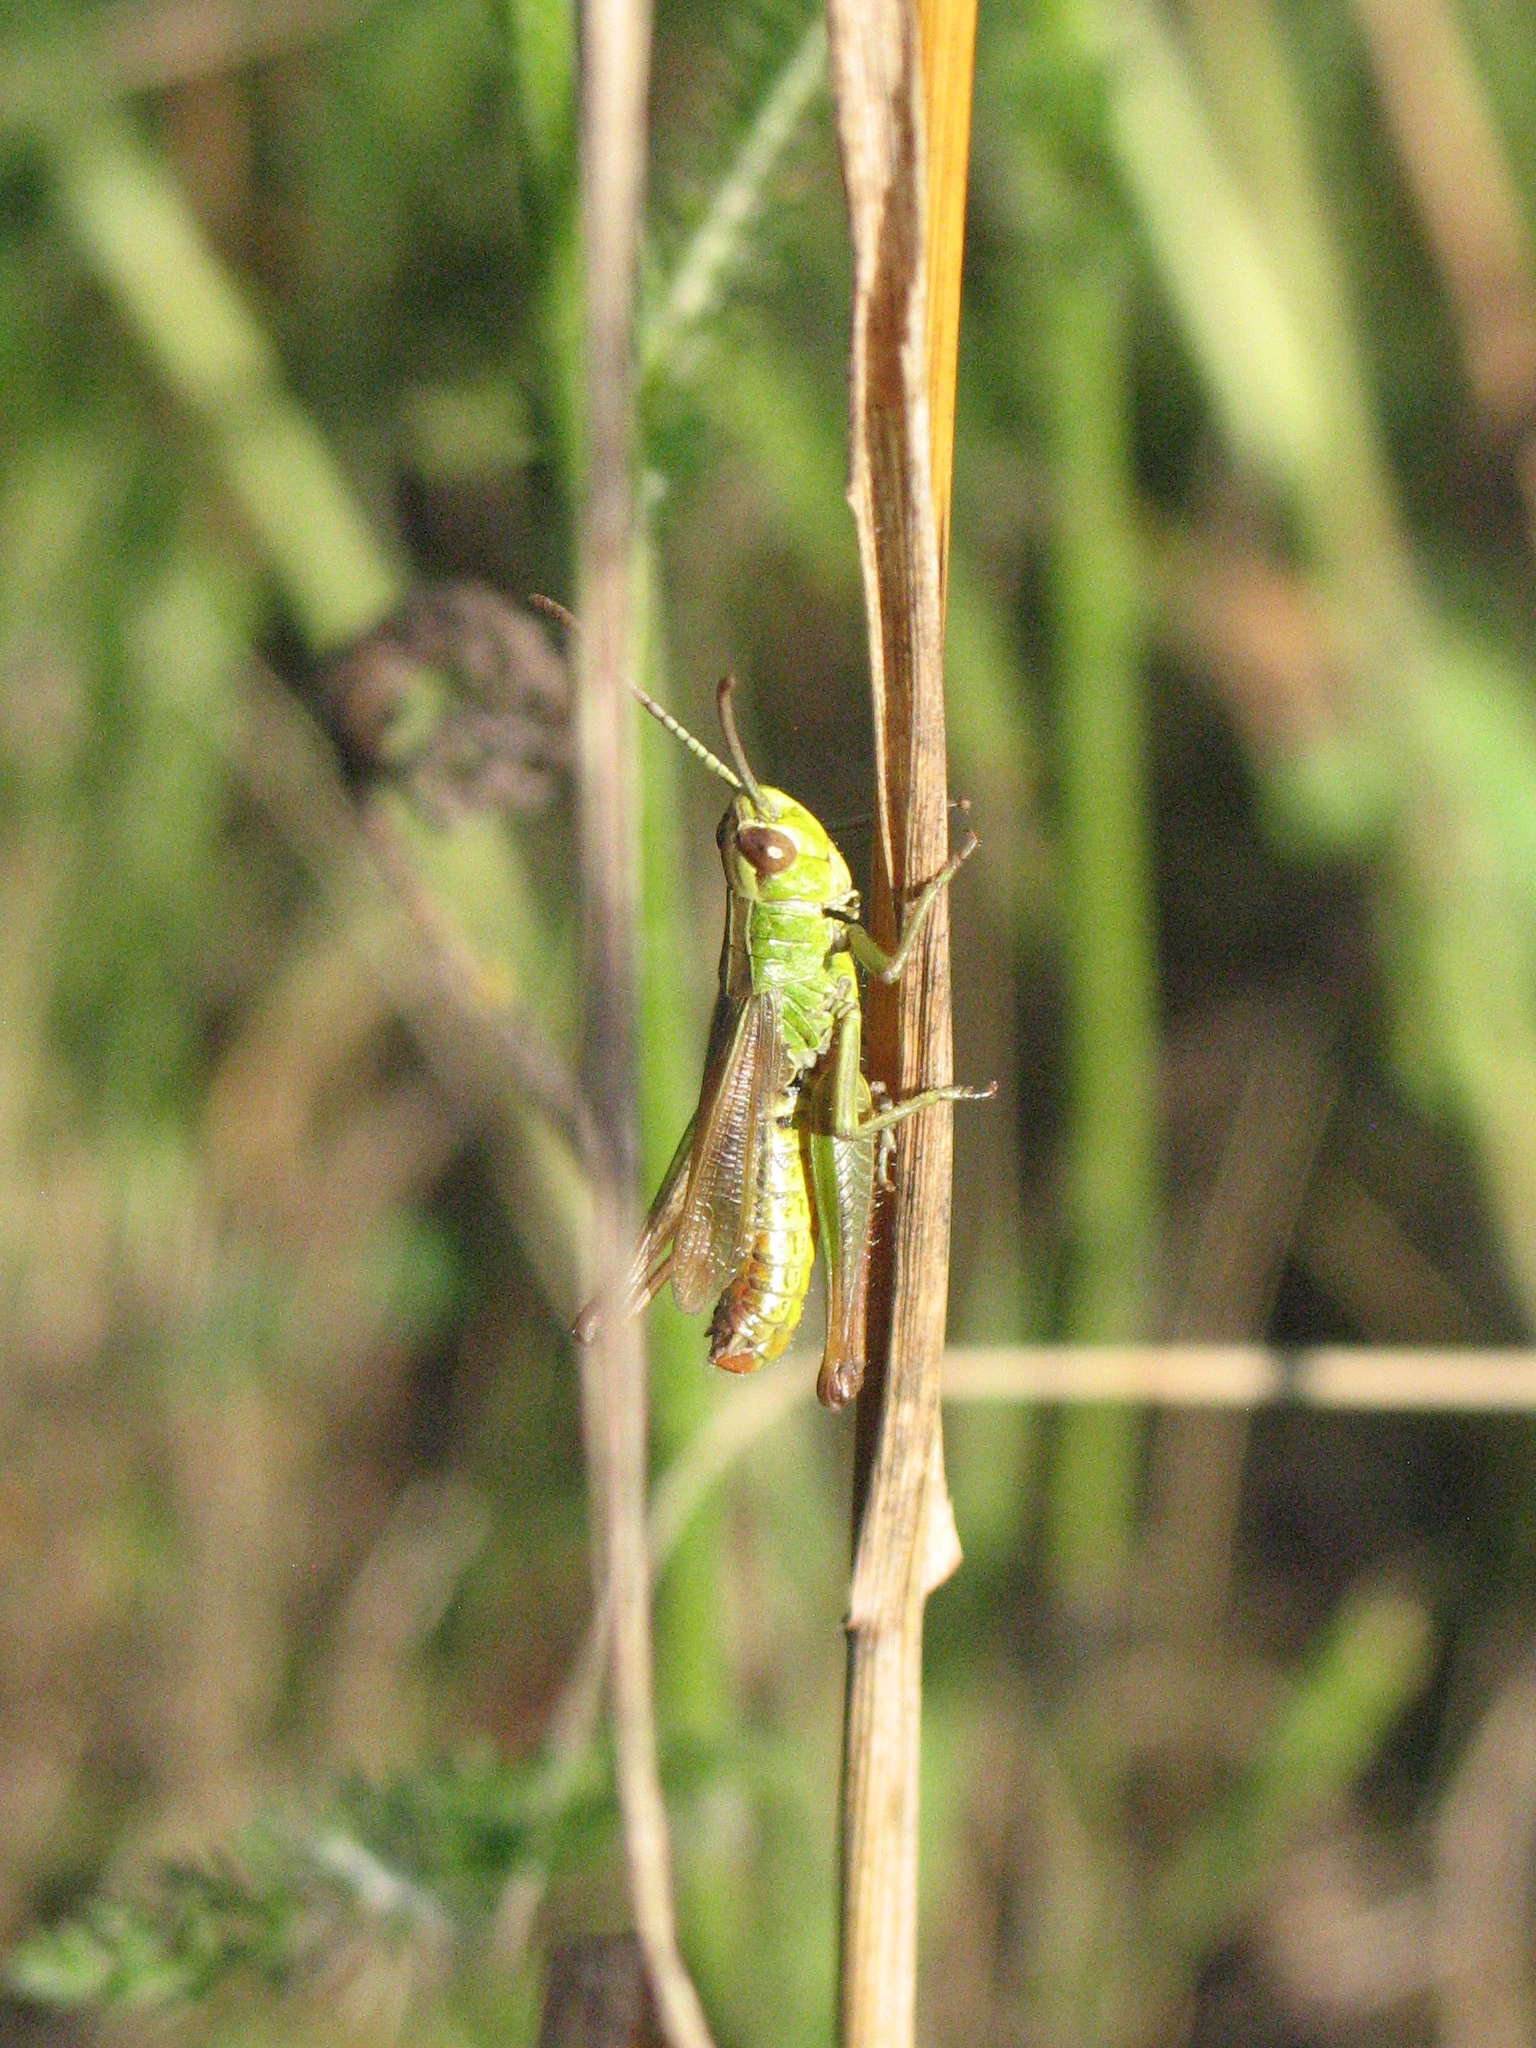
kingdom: Animalia
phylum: Arthropoda
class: Insecta
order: Orthoptera
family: Acrididae
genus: Pseudochorthippus
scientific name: Pseudochorthippus parallelus
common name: Meadow grasshopper
